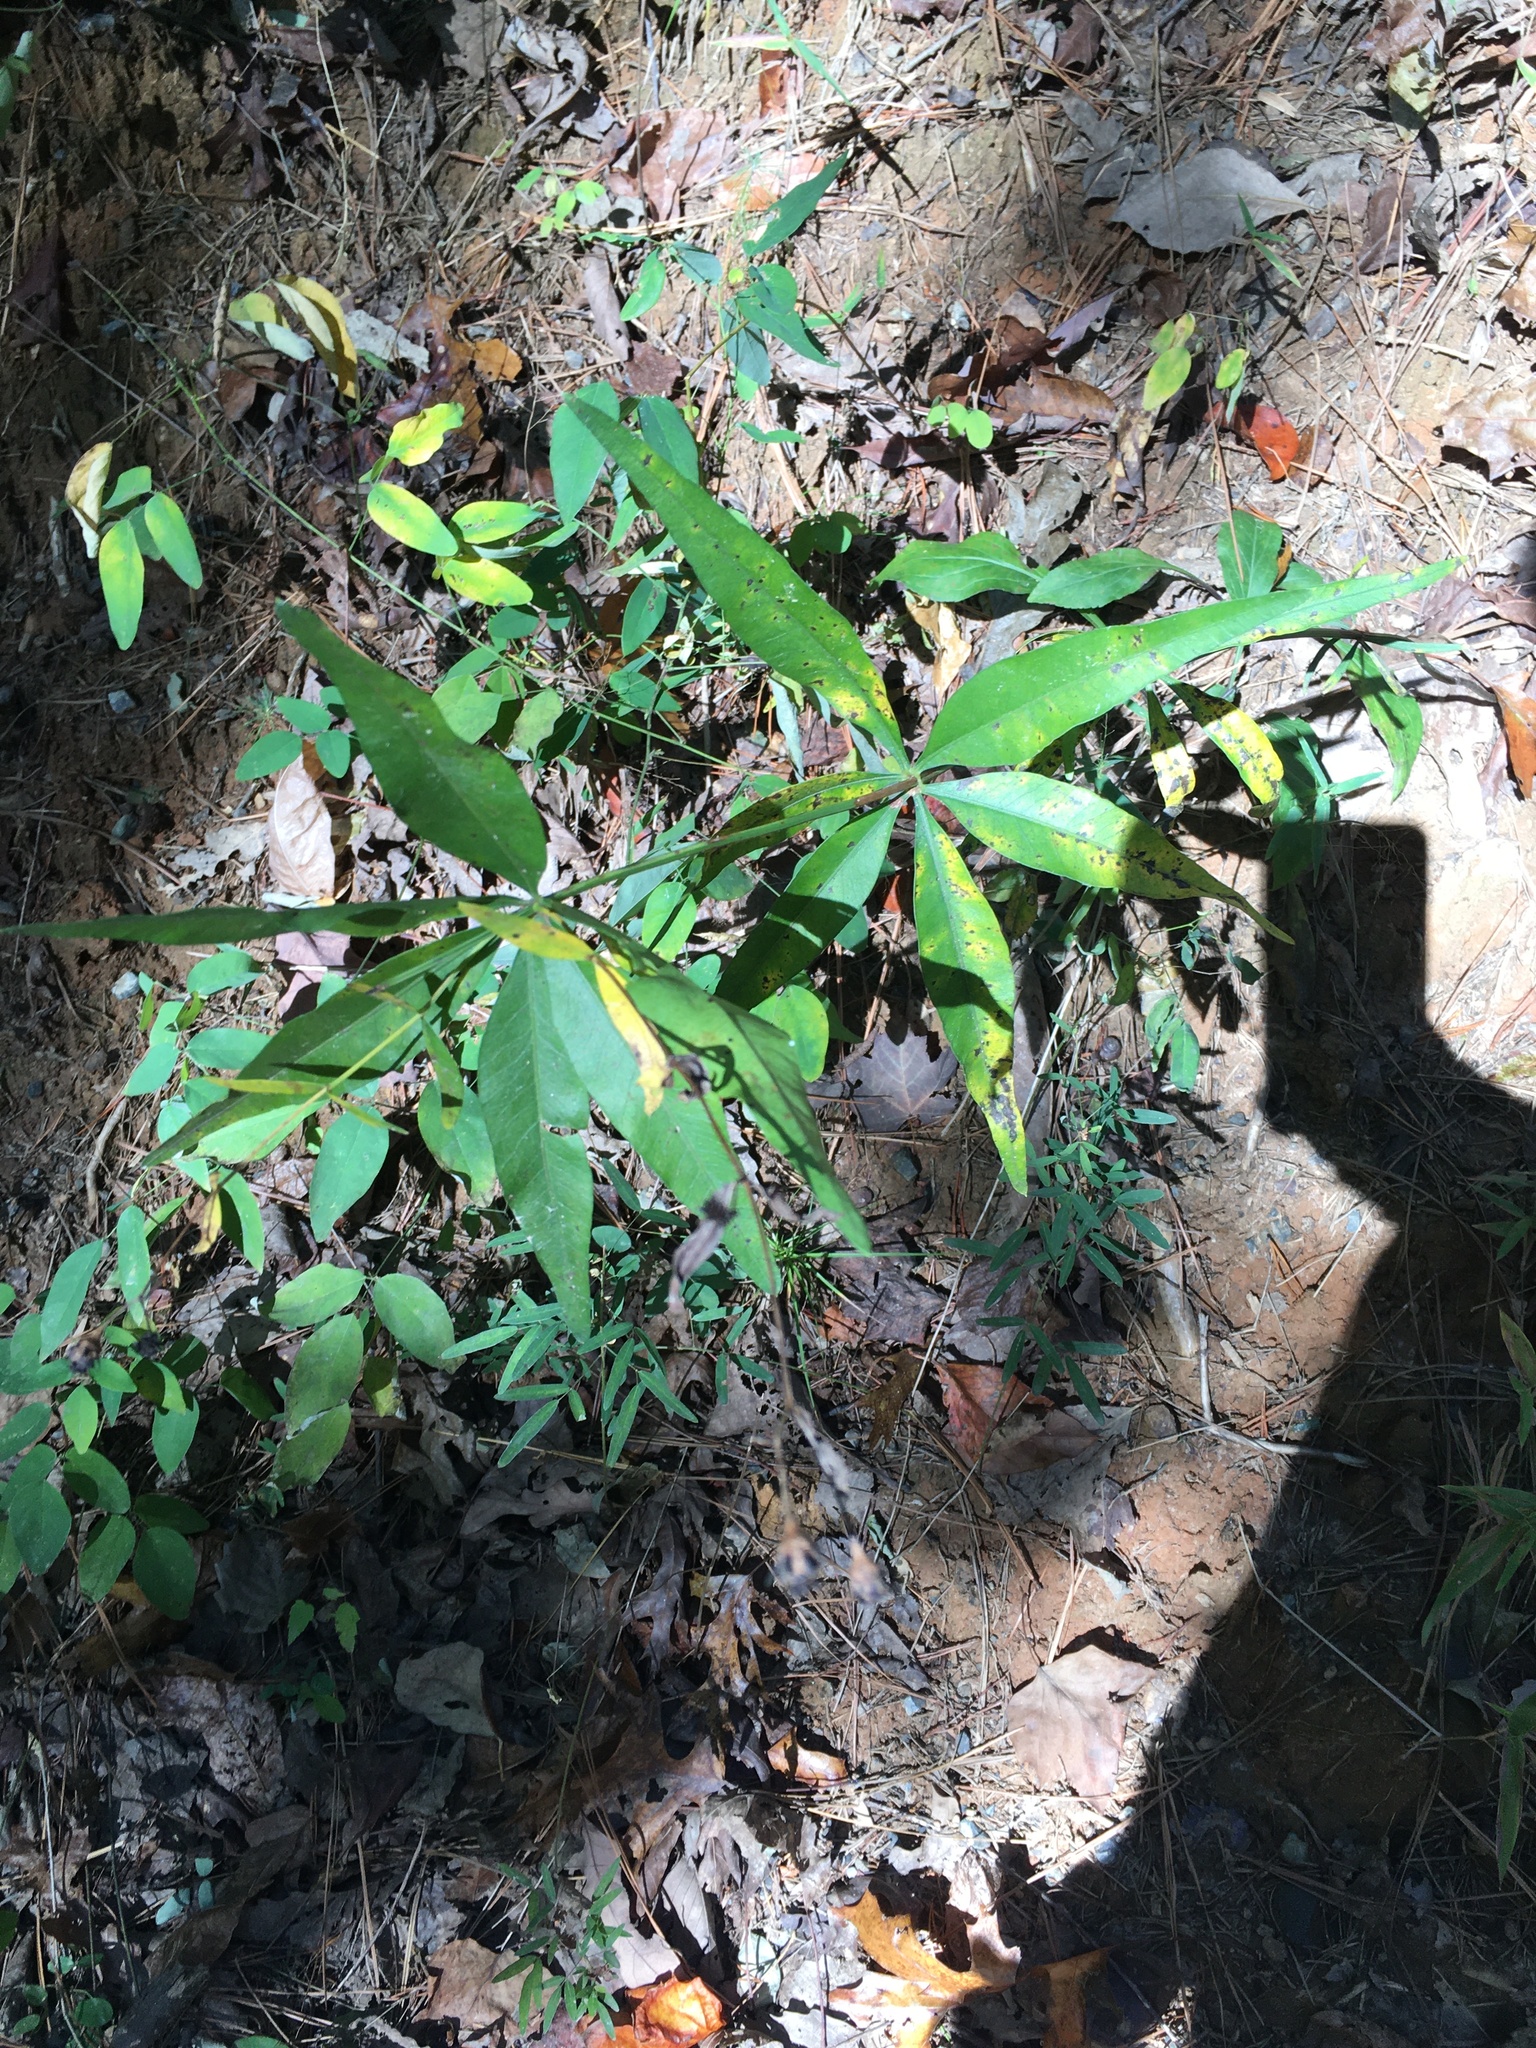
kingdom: Plantae
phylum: Tracheophyta
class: Magnoliopsida
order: Asterales
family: Asteraceae
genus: Coreopsis
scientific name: Coreopsis major
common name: Forest tickseed
